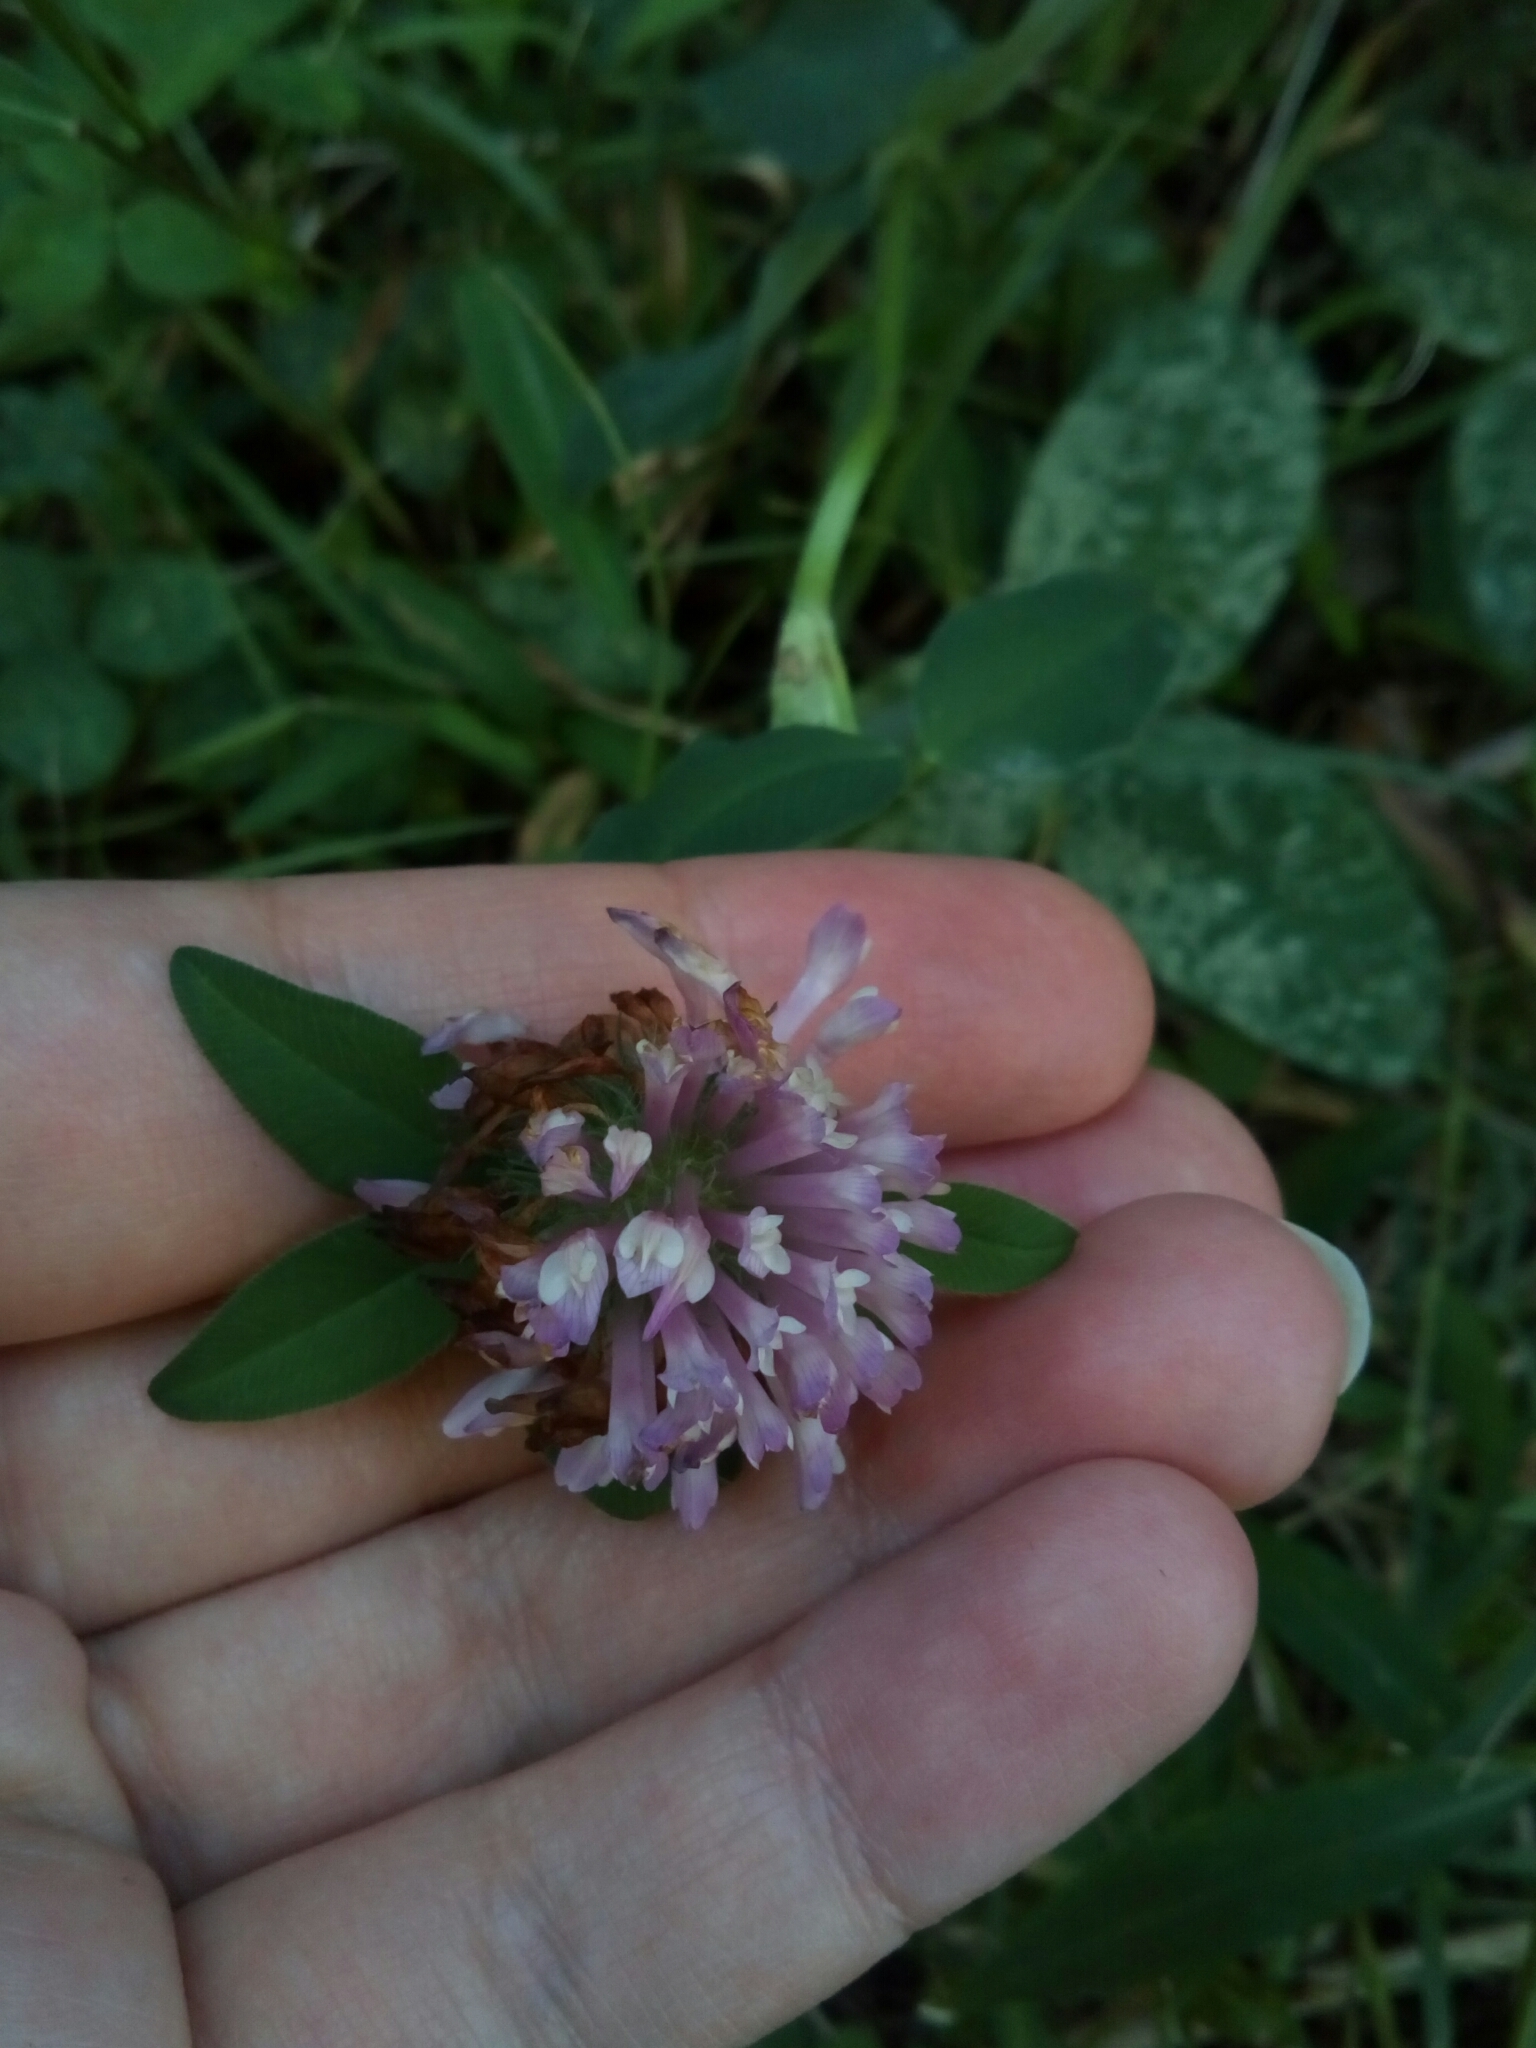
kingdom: Plantae
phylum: Tracheophyta
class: Magnoliopsida
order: Fabales
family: Fabaceae
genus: Trifolium
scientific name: Trifolium pratense
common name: Red clover
